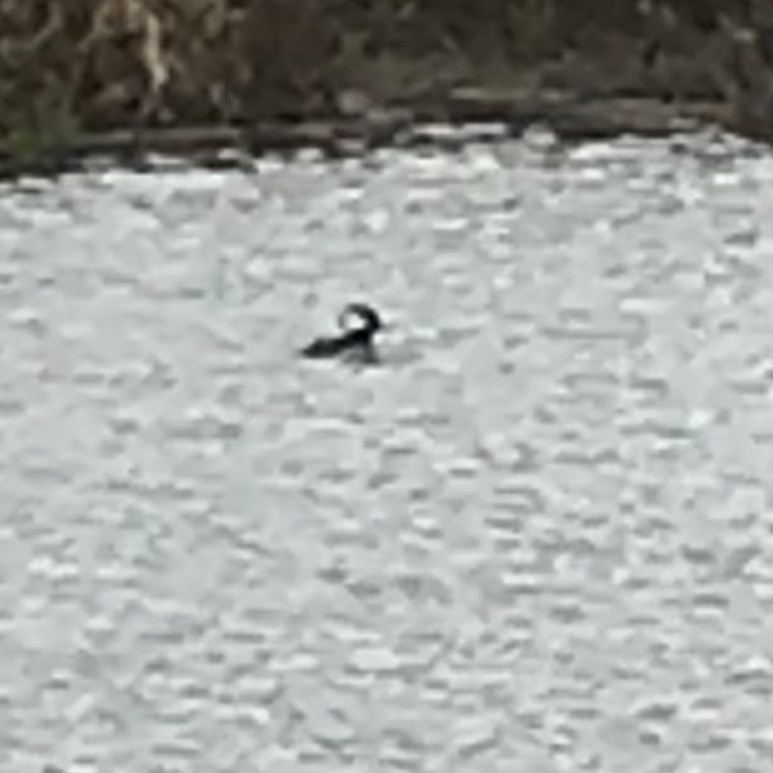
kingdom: Animalia
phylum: Chordata
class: Aves
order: Anseriformes
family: Anatidae
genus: Lophodytes
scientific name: Lophodytes cucullatus
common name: Hooded merganser
